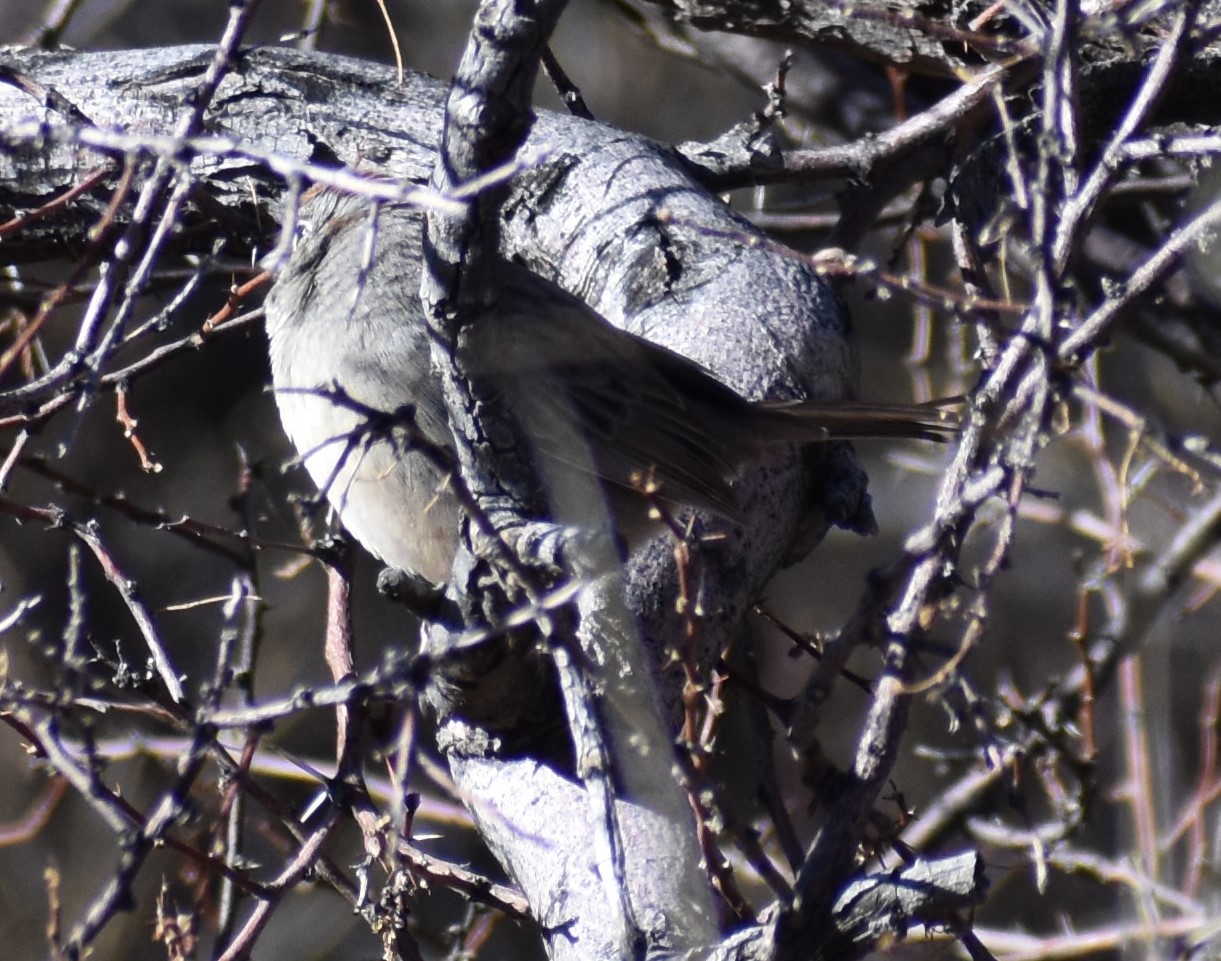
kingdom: Animalia
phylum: Chordata
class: Aves
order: Passeriformes
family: Passerellidae
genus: Aimophila
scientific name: Aimophila ruficeps
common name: Rufous-crowned sparrow
